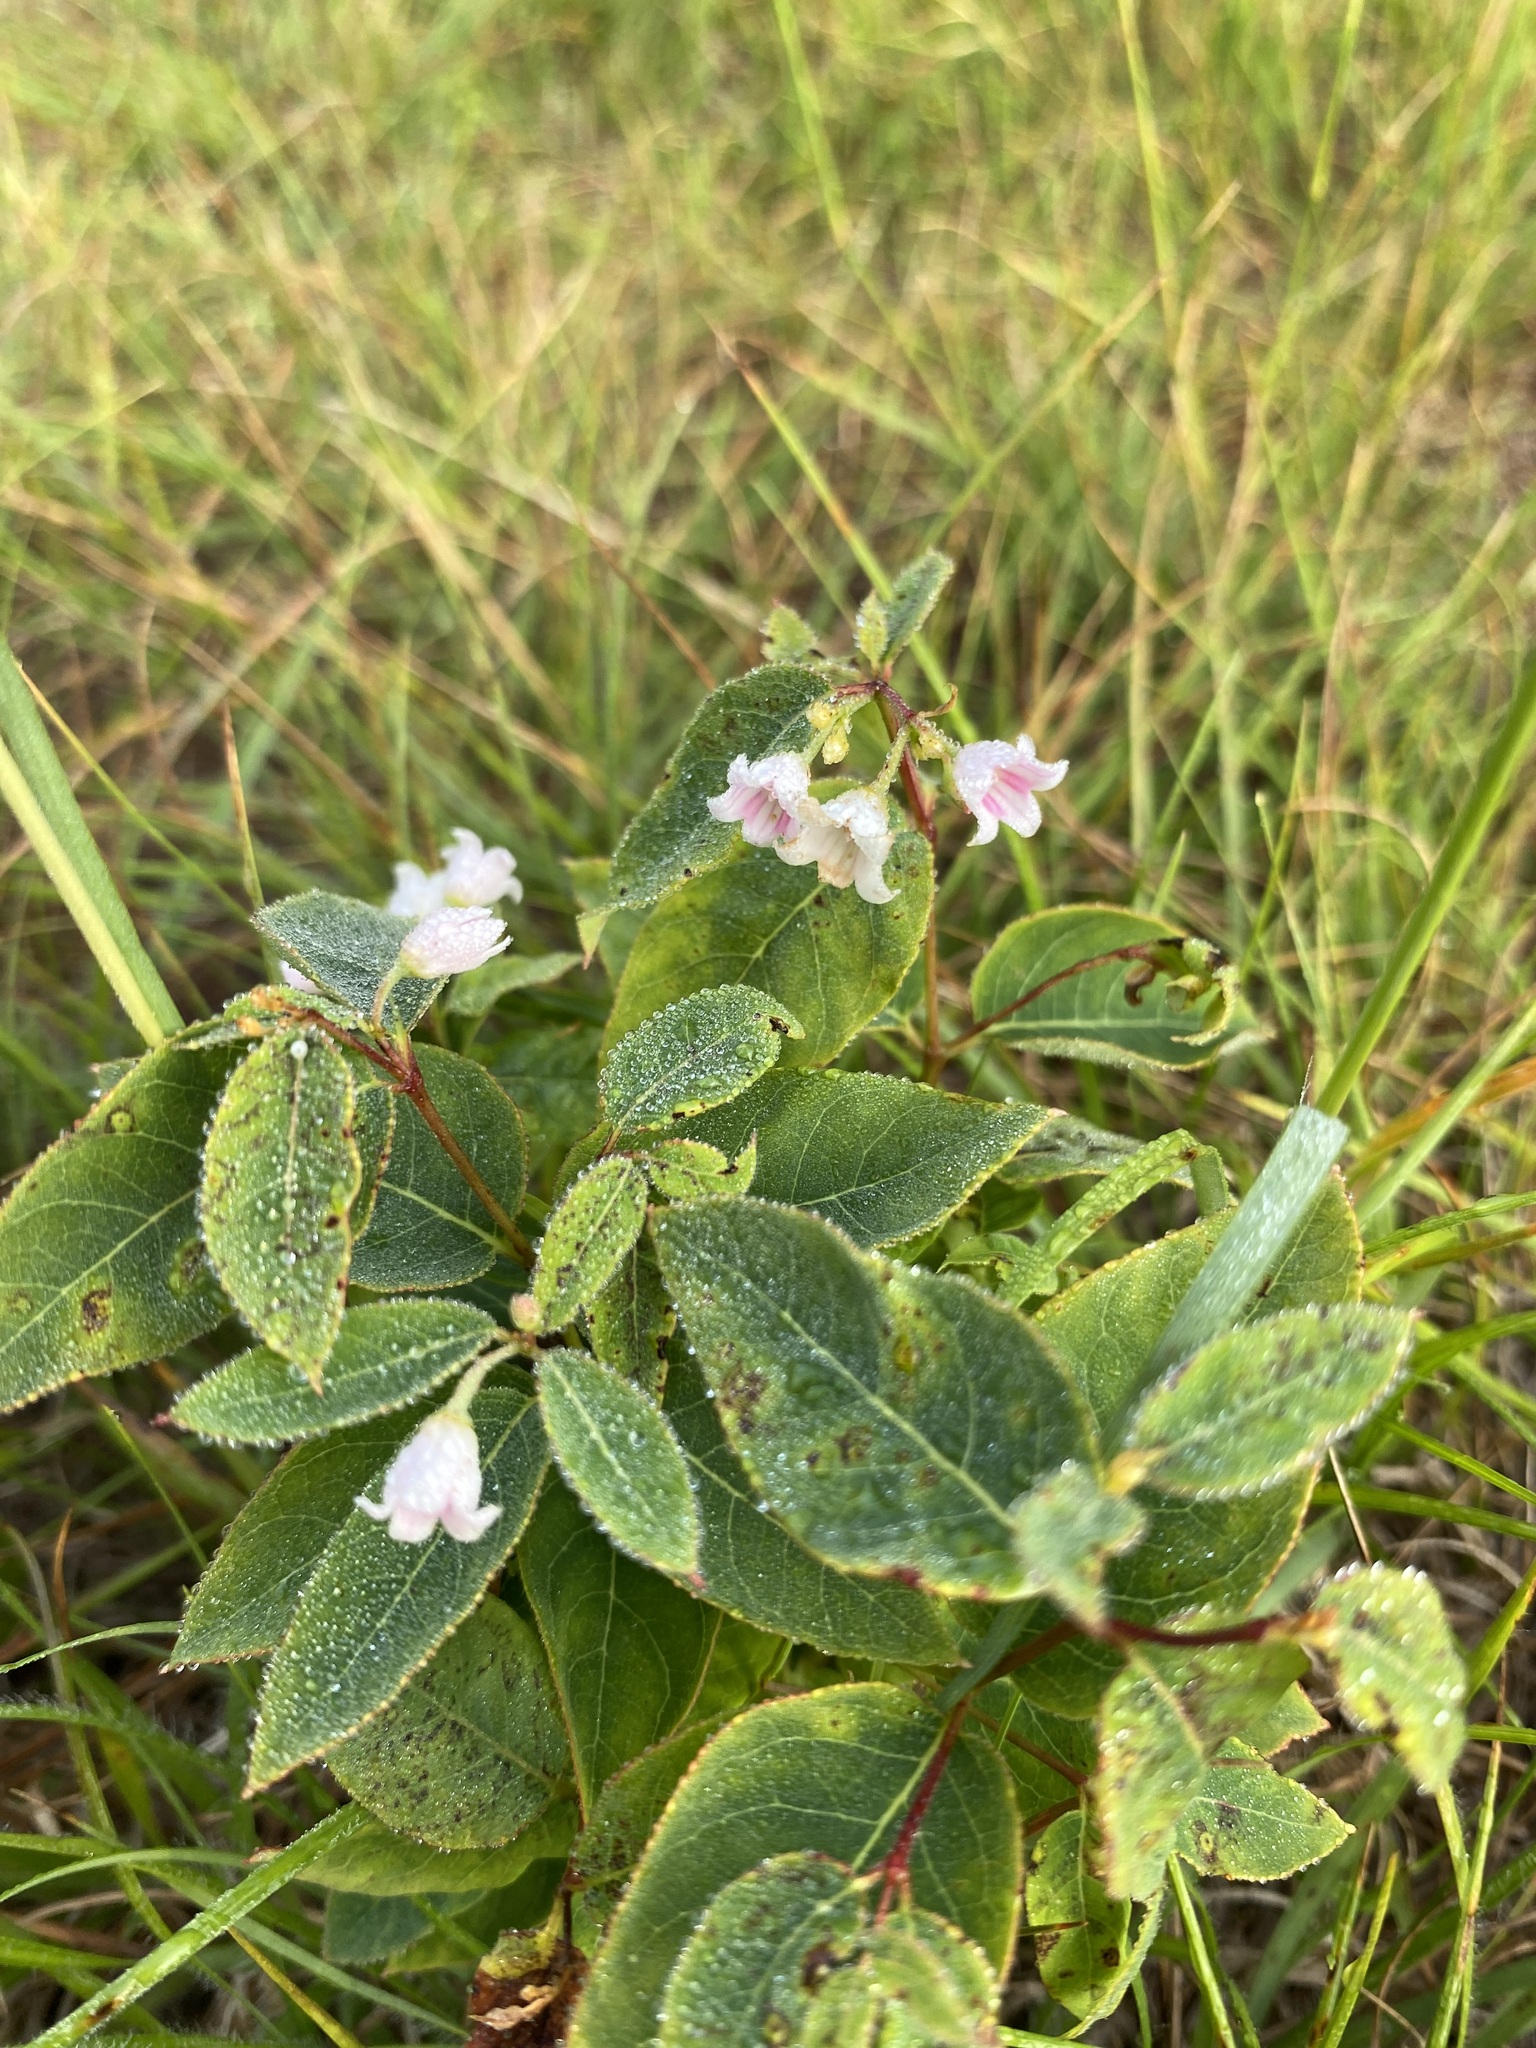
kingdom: Plantae
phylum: Tracheophyta
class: Magnoliopsida
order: Gentianales
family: Apocynaceae
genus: Apocynum
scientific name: Apocynum androsaemifolium
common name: Spreading dogbane
